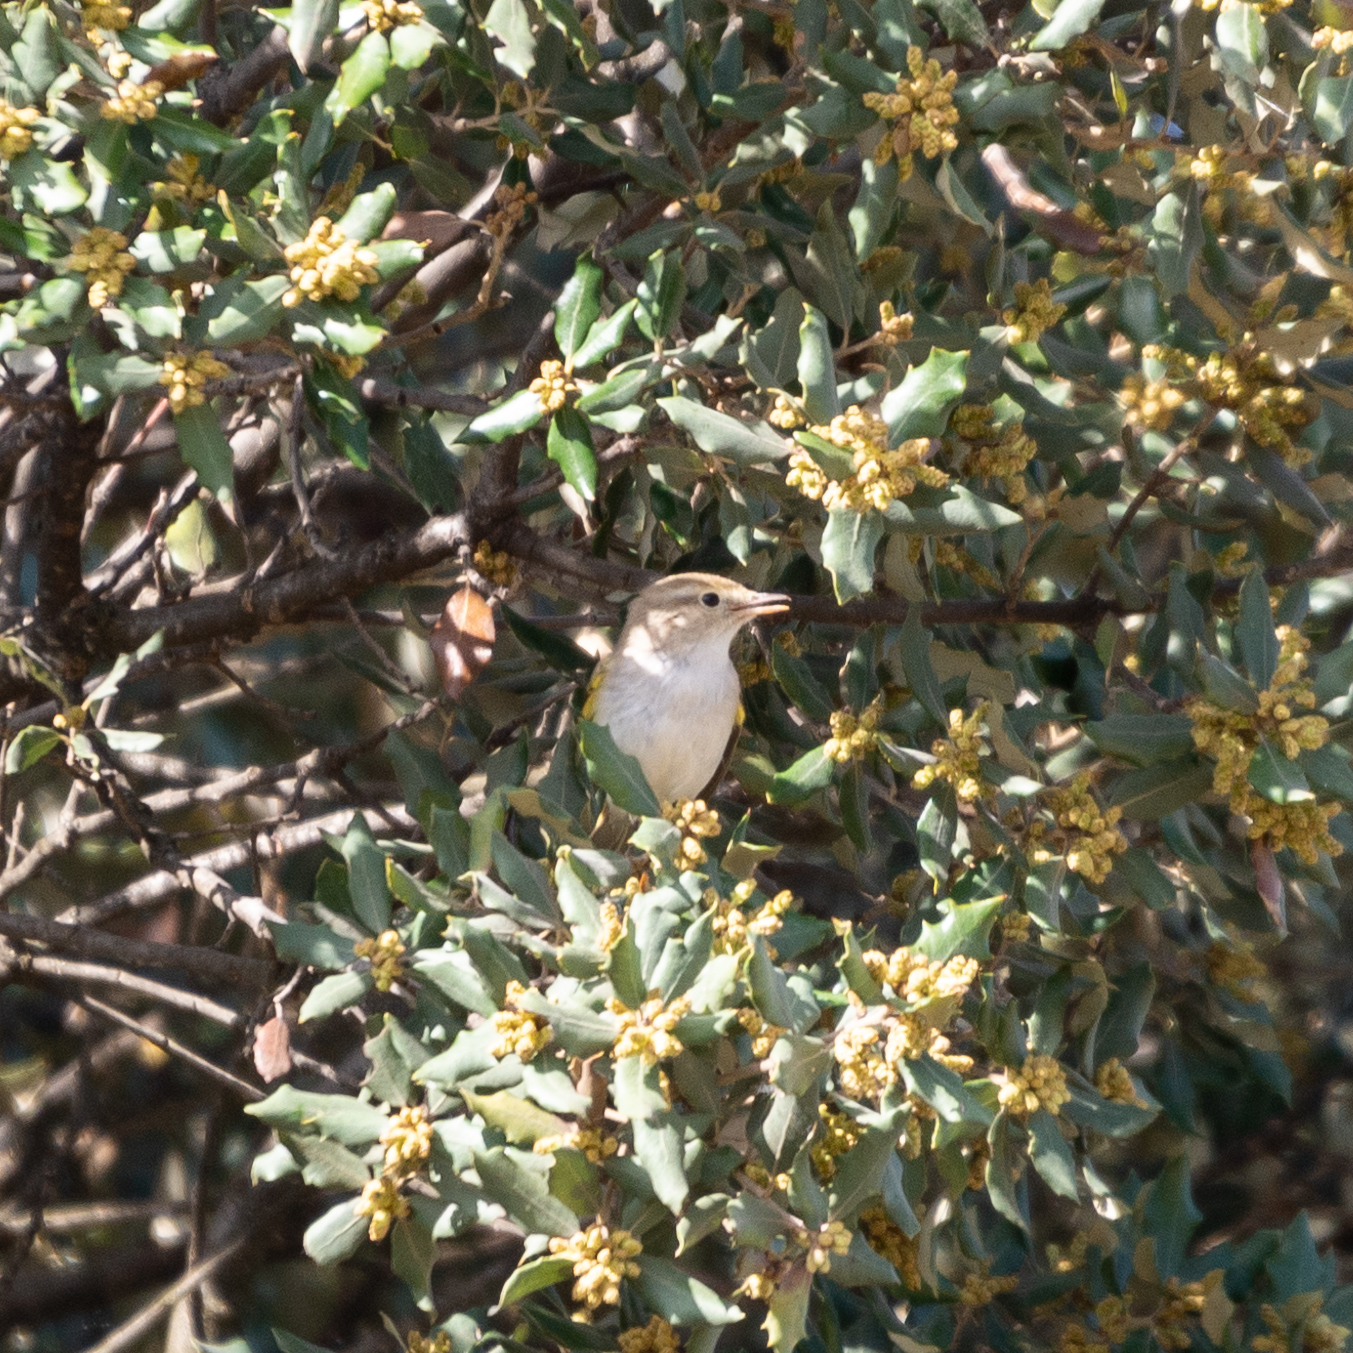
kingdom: Animalia
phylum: Chordata
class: Aves
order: Passeriformes
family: Phylloscopidae
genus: Phylloscopus
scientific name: Phylloscopus bonelli
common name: Western bonelli's warbler
